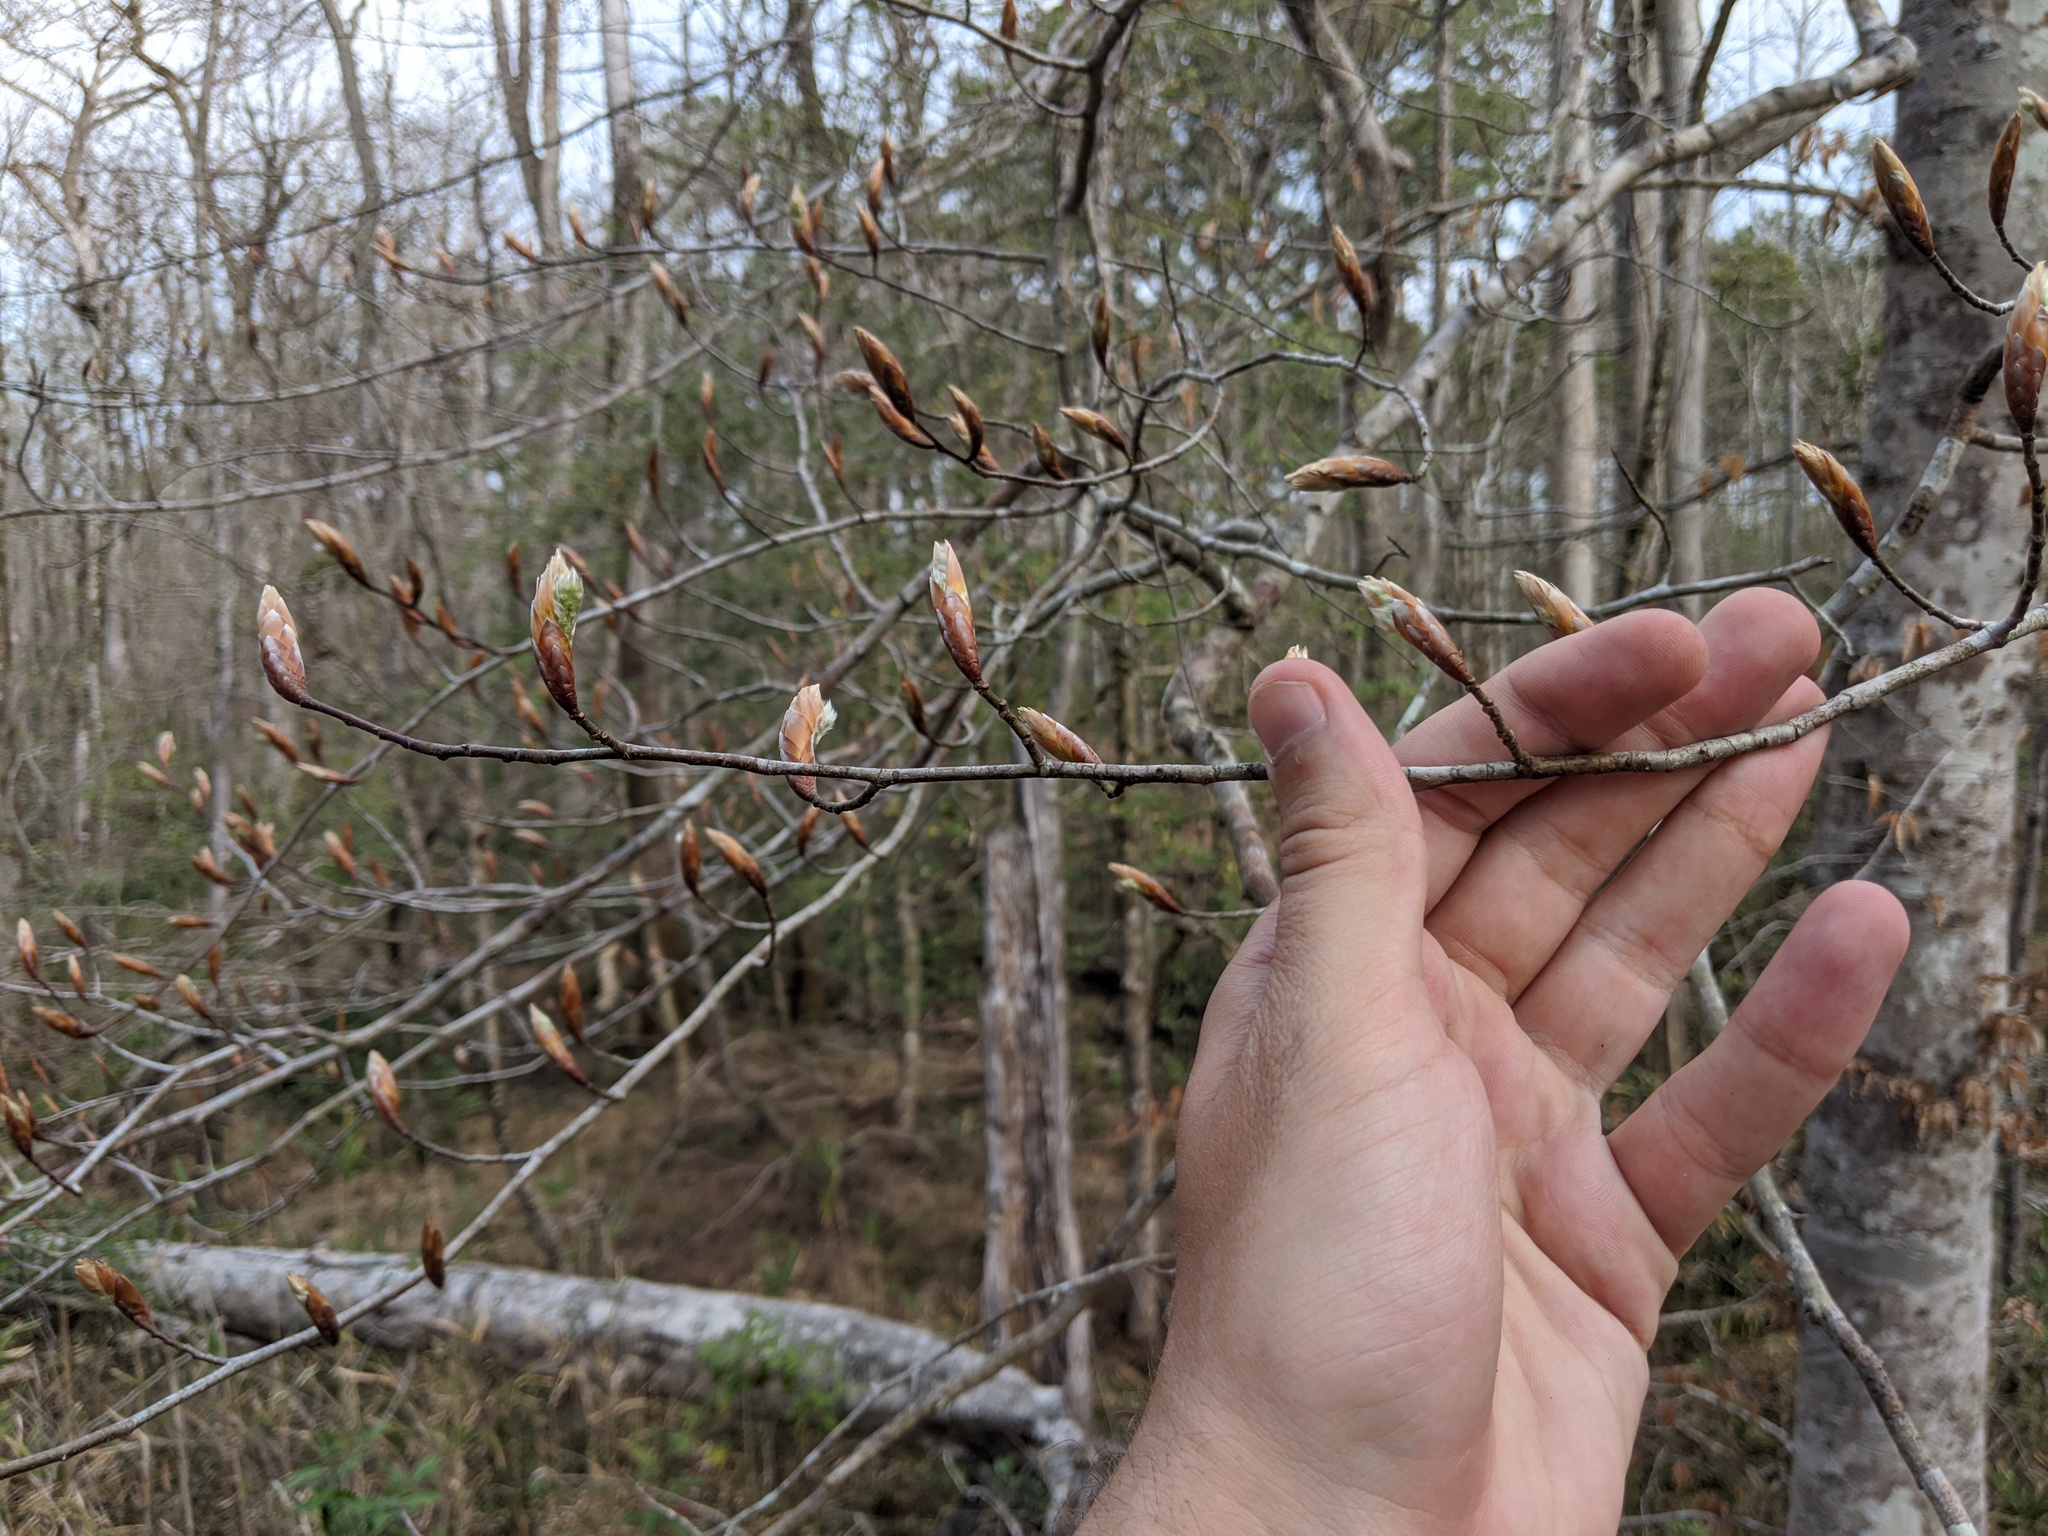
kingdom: Plantae
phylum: Tracheophyta
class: Magnoliopsida
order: Fagales
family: Fagaceae
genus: Fagus
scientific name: Fagus grandifolia
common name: American beech
